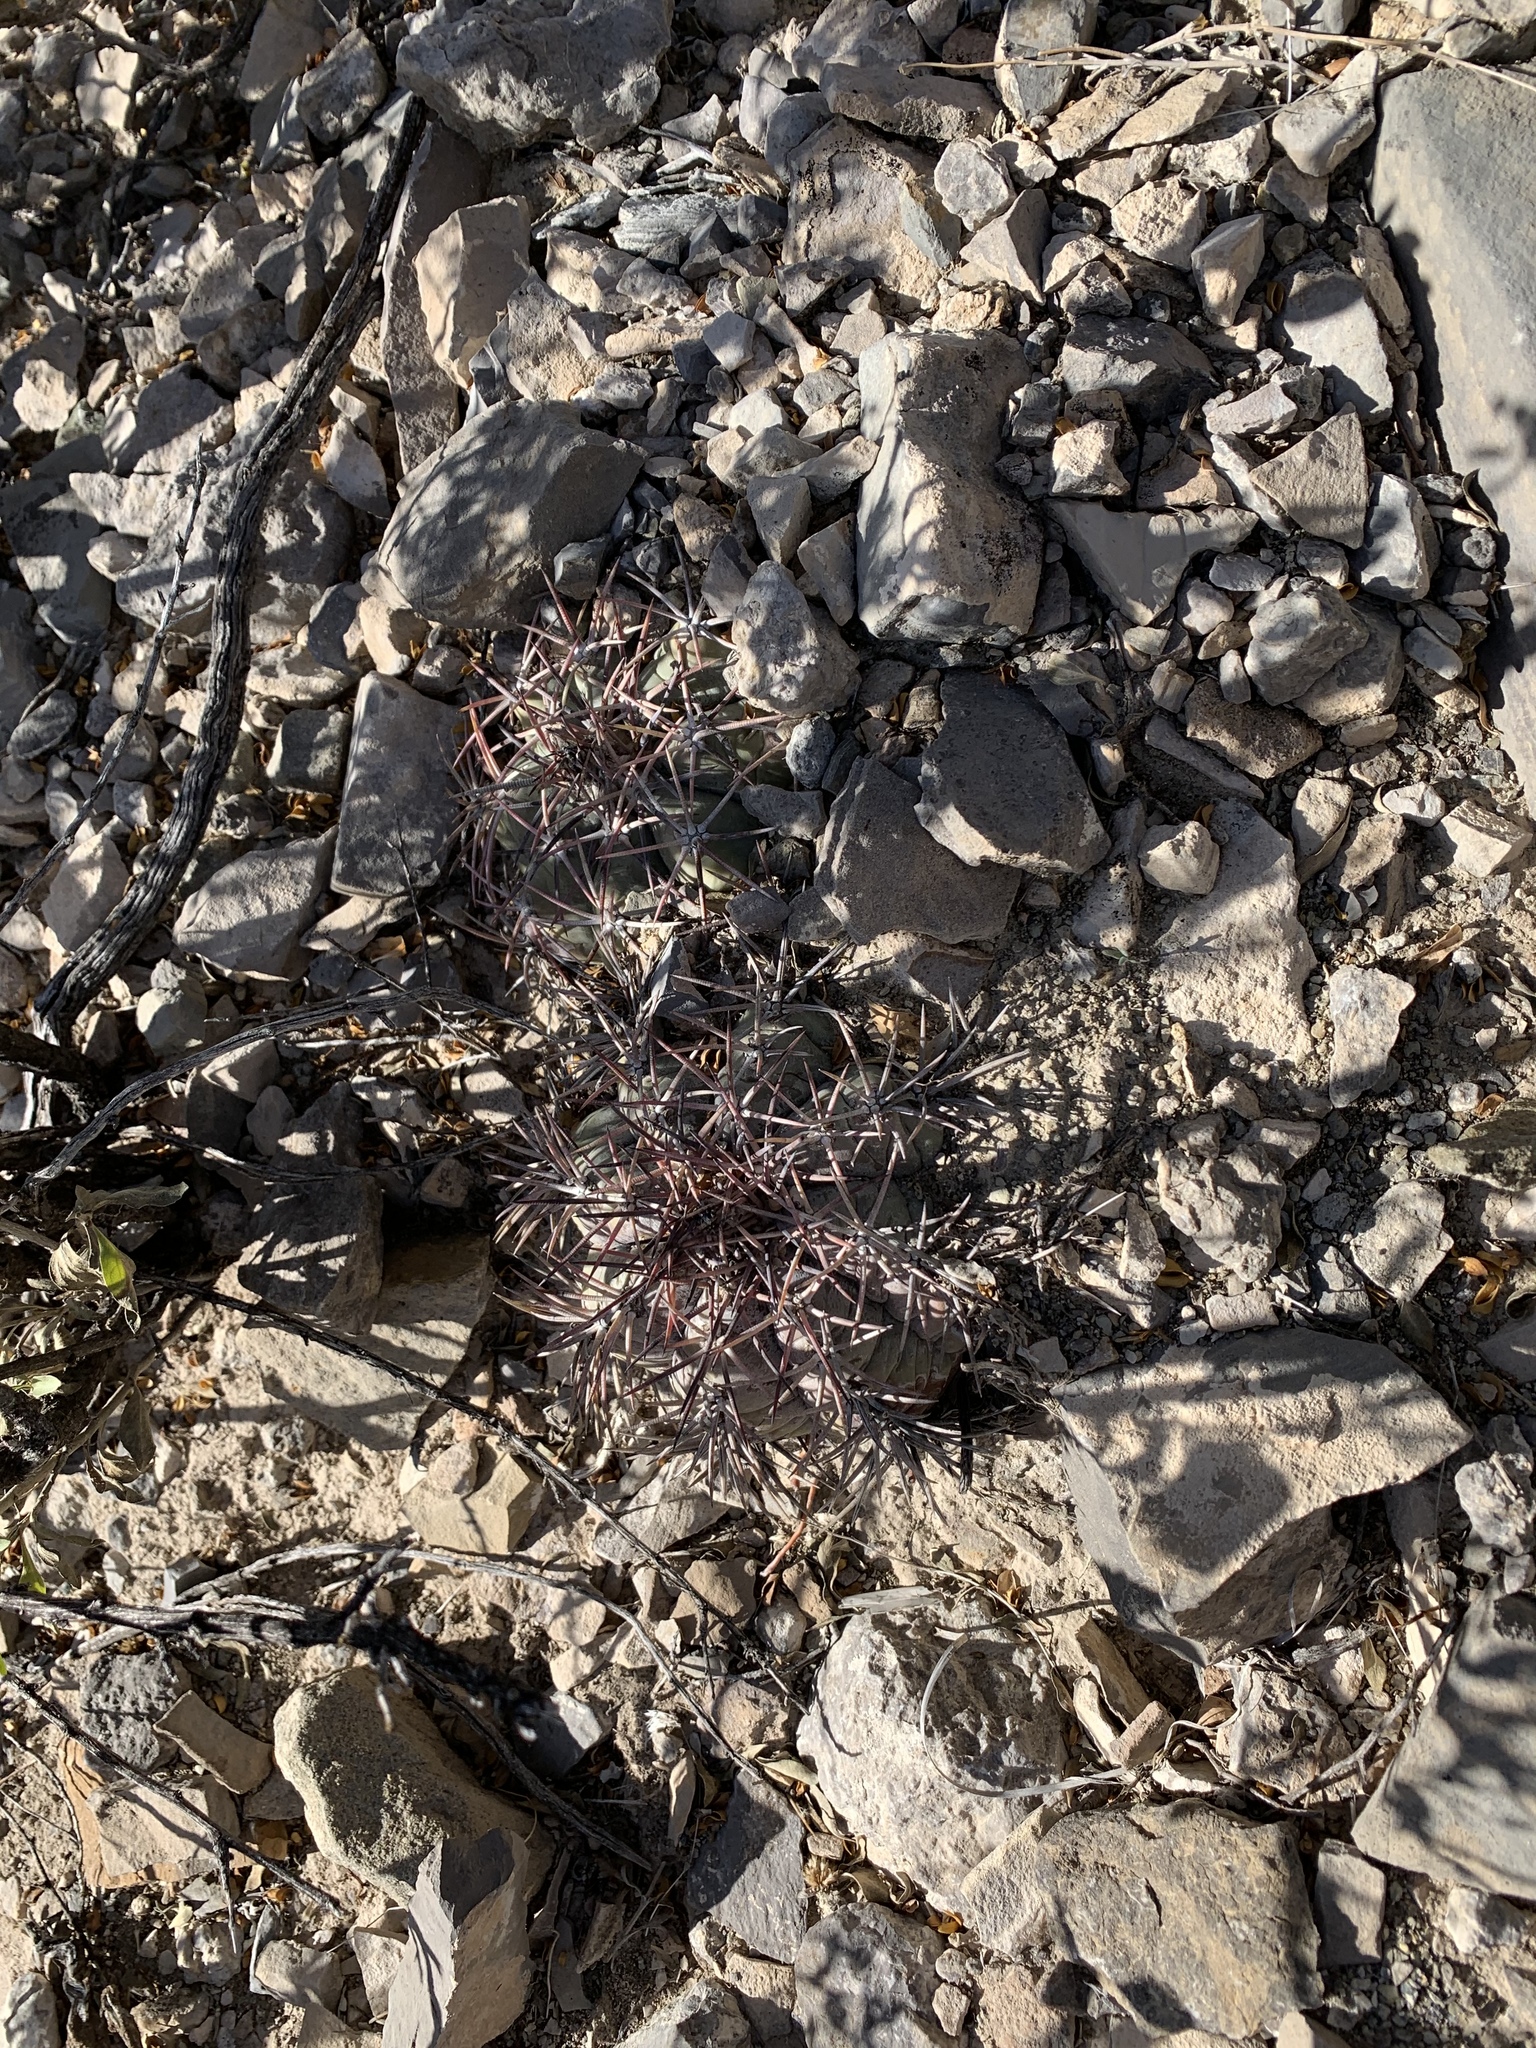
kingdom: Plantae
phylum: Tracheophyta
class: Magnoliopsida
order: Caryophyllales
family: Cactaceae
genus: Echinocactus
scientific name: Echinocactus horizonthalonius
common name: Devilshead
